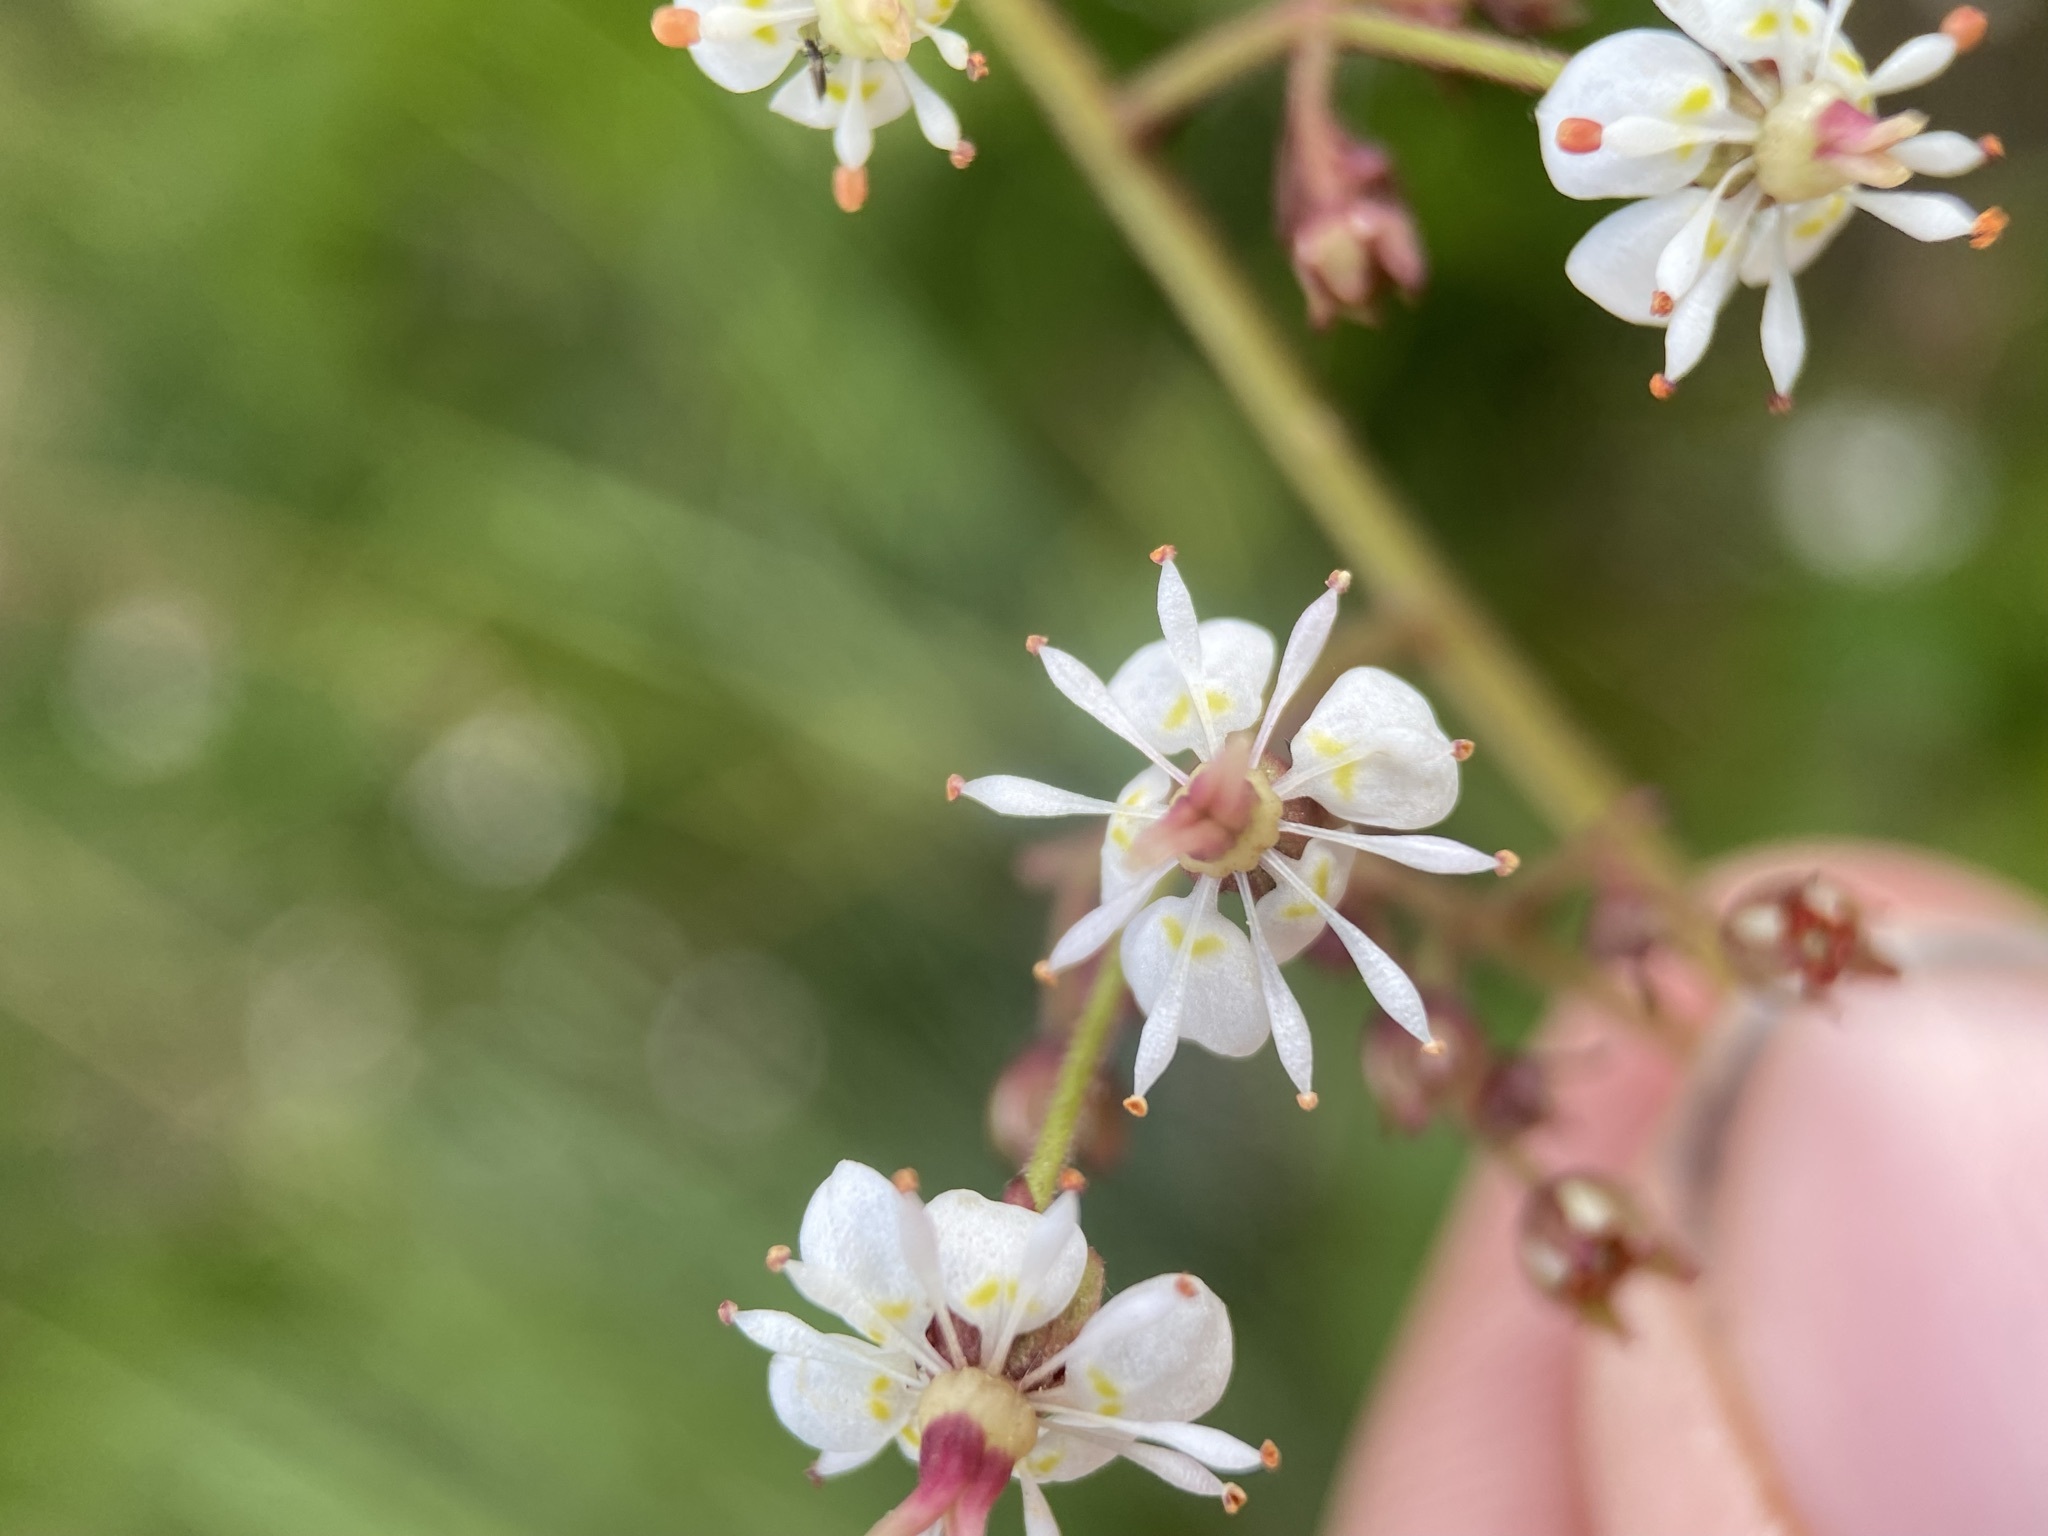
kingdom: Plantae
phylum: Tracheophyta
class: Magnoliopsida
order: Saxifragales
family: Saxifragaceae
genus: Micranthes
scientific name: Micranthes odontoloma
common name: Brook saxifrage
